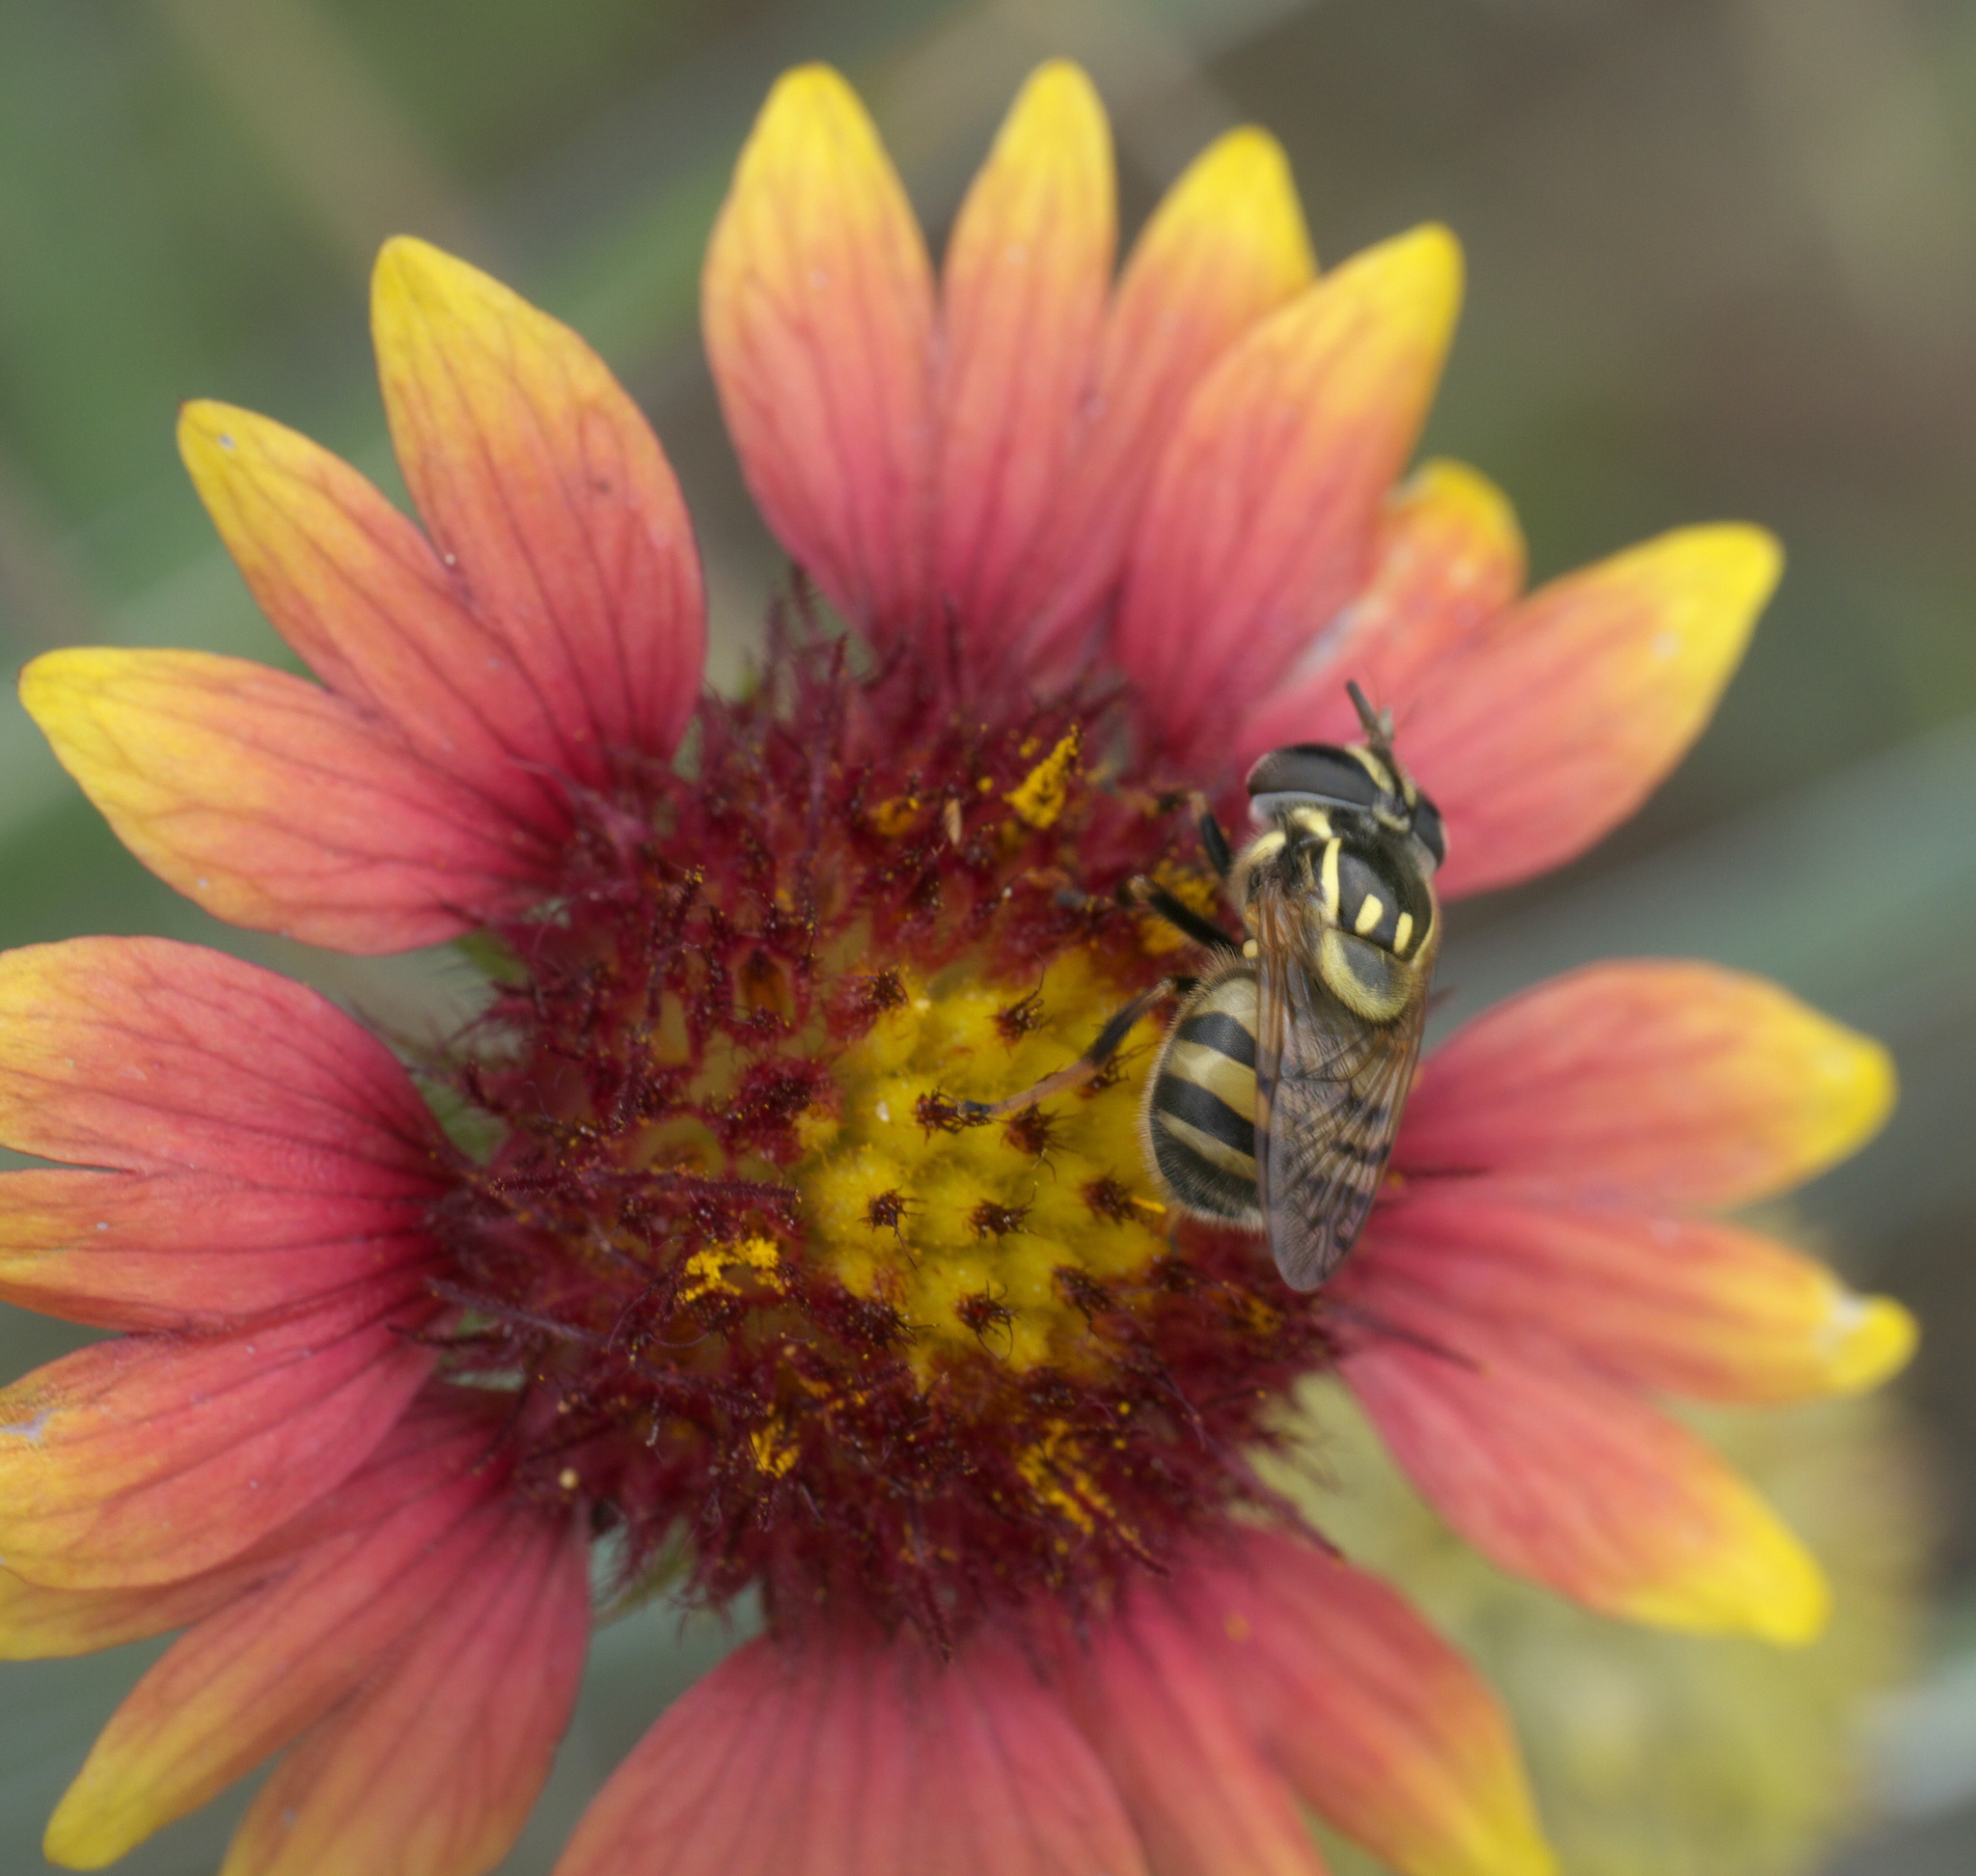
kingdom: Animalia
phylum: Arthropoda
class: Insecta
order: Diptera
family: Syrphidae
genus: Copestylum
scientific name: Copestylum vittatum
